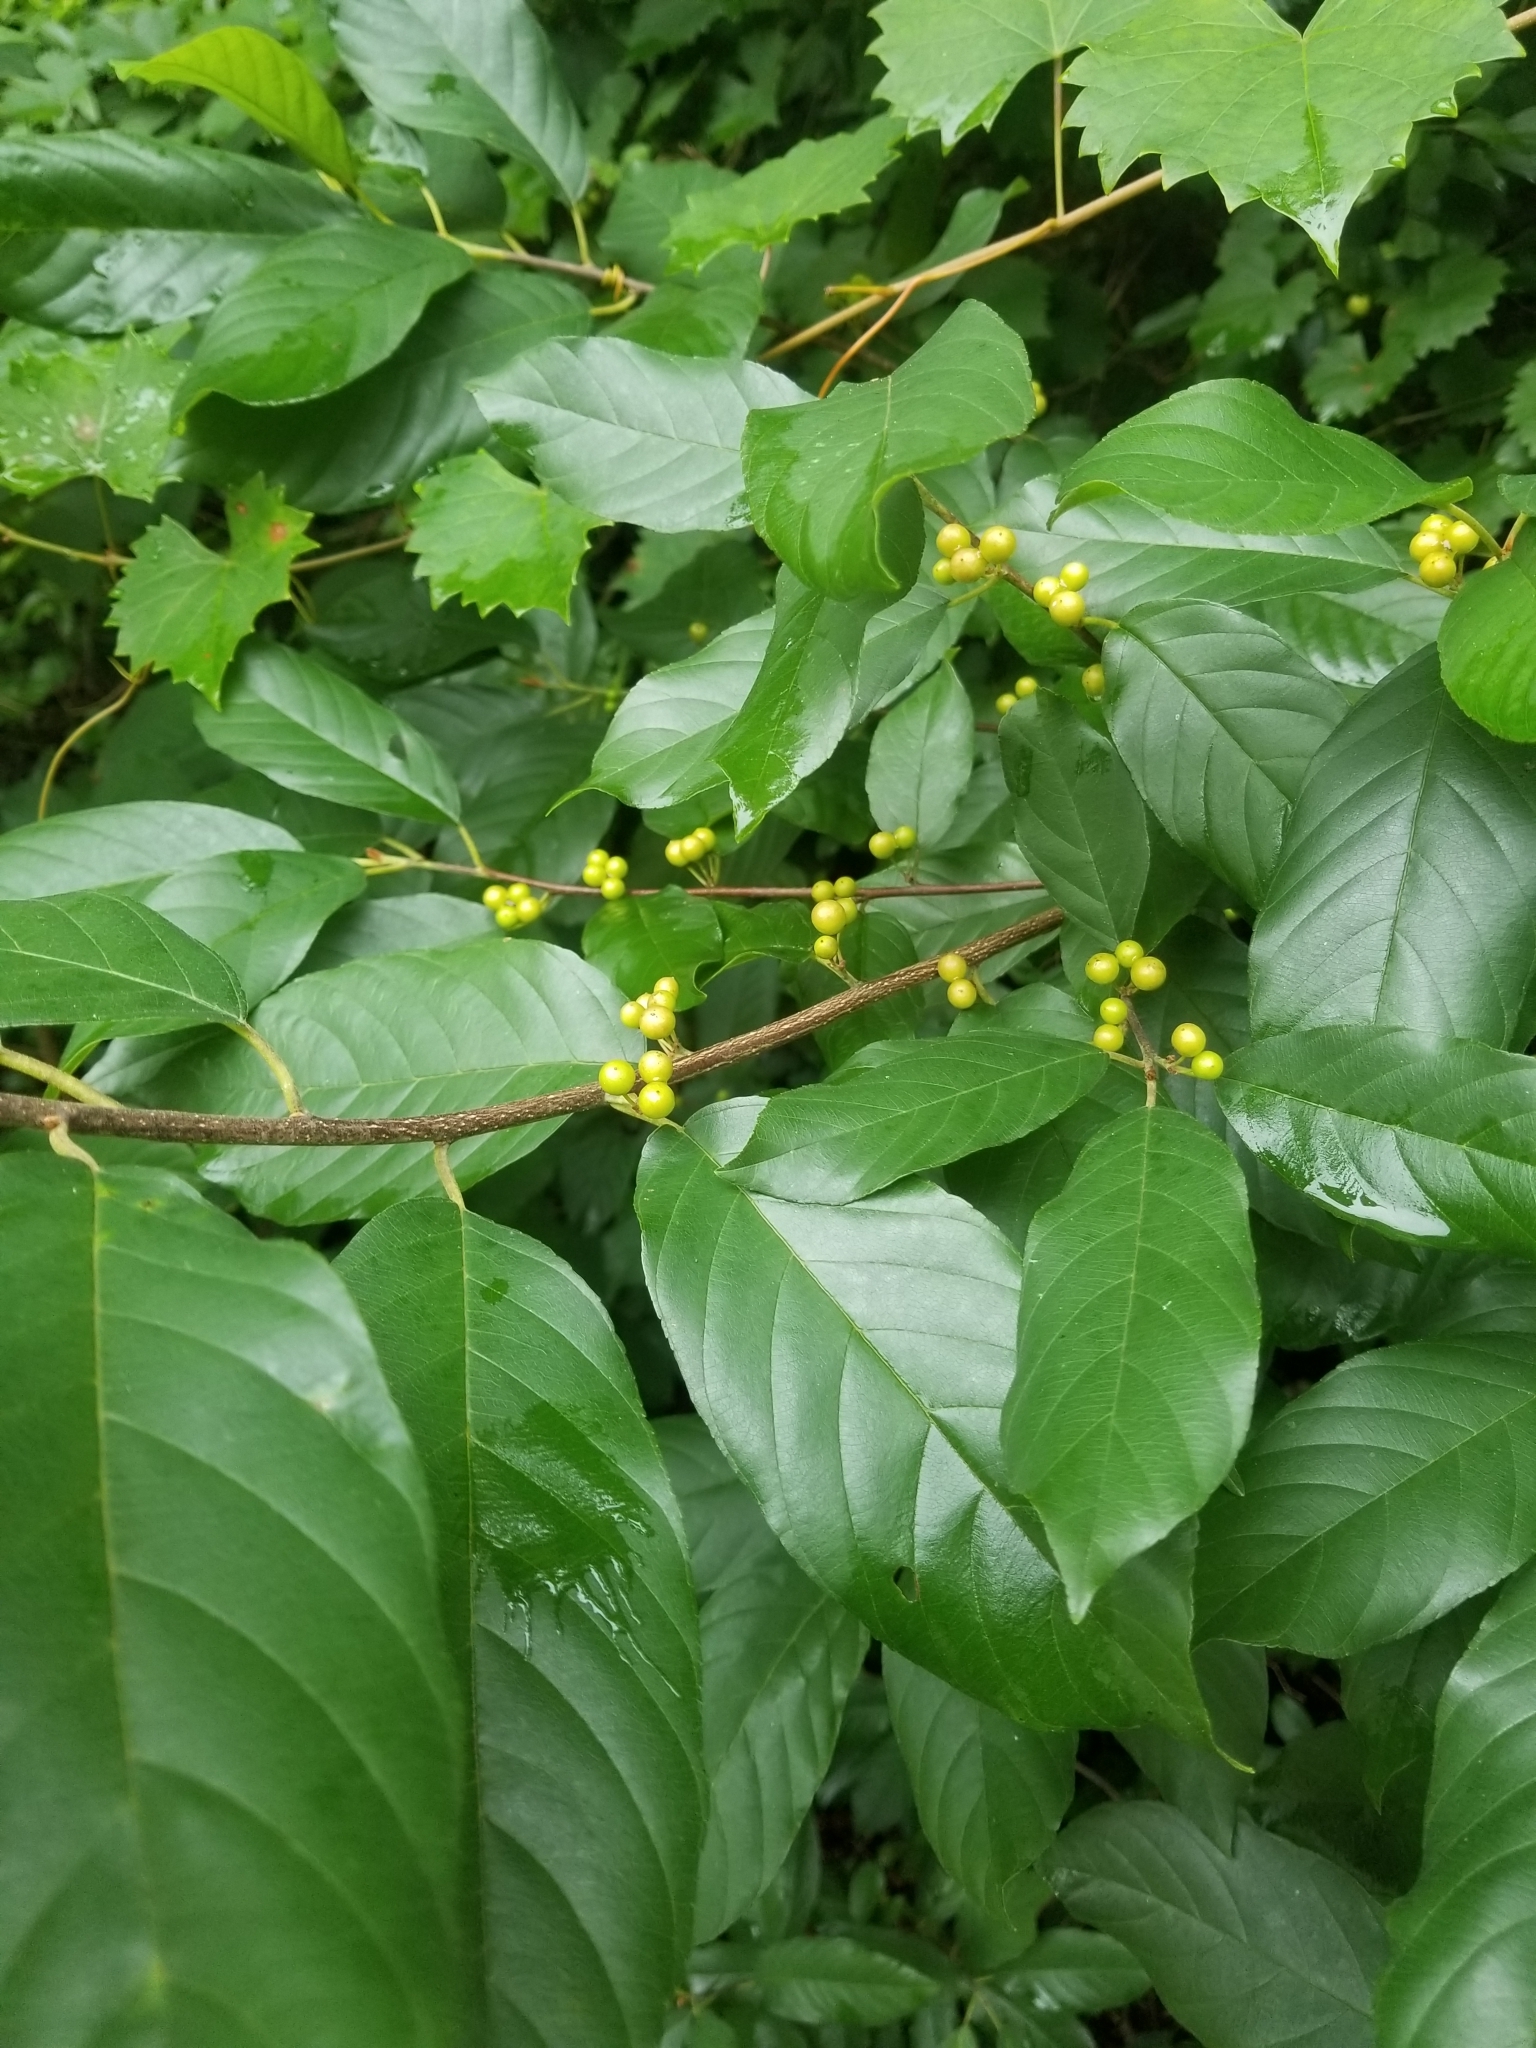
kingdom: Plantae
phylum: Tracheophyta
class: Magnoliopsida
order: Rosales
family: Rhamnaceae
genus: Frangula
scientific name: Frangula caroliniana
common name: Carolina buckthorn
